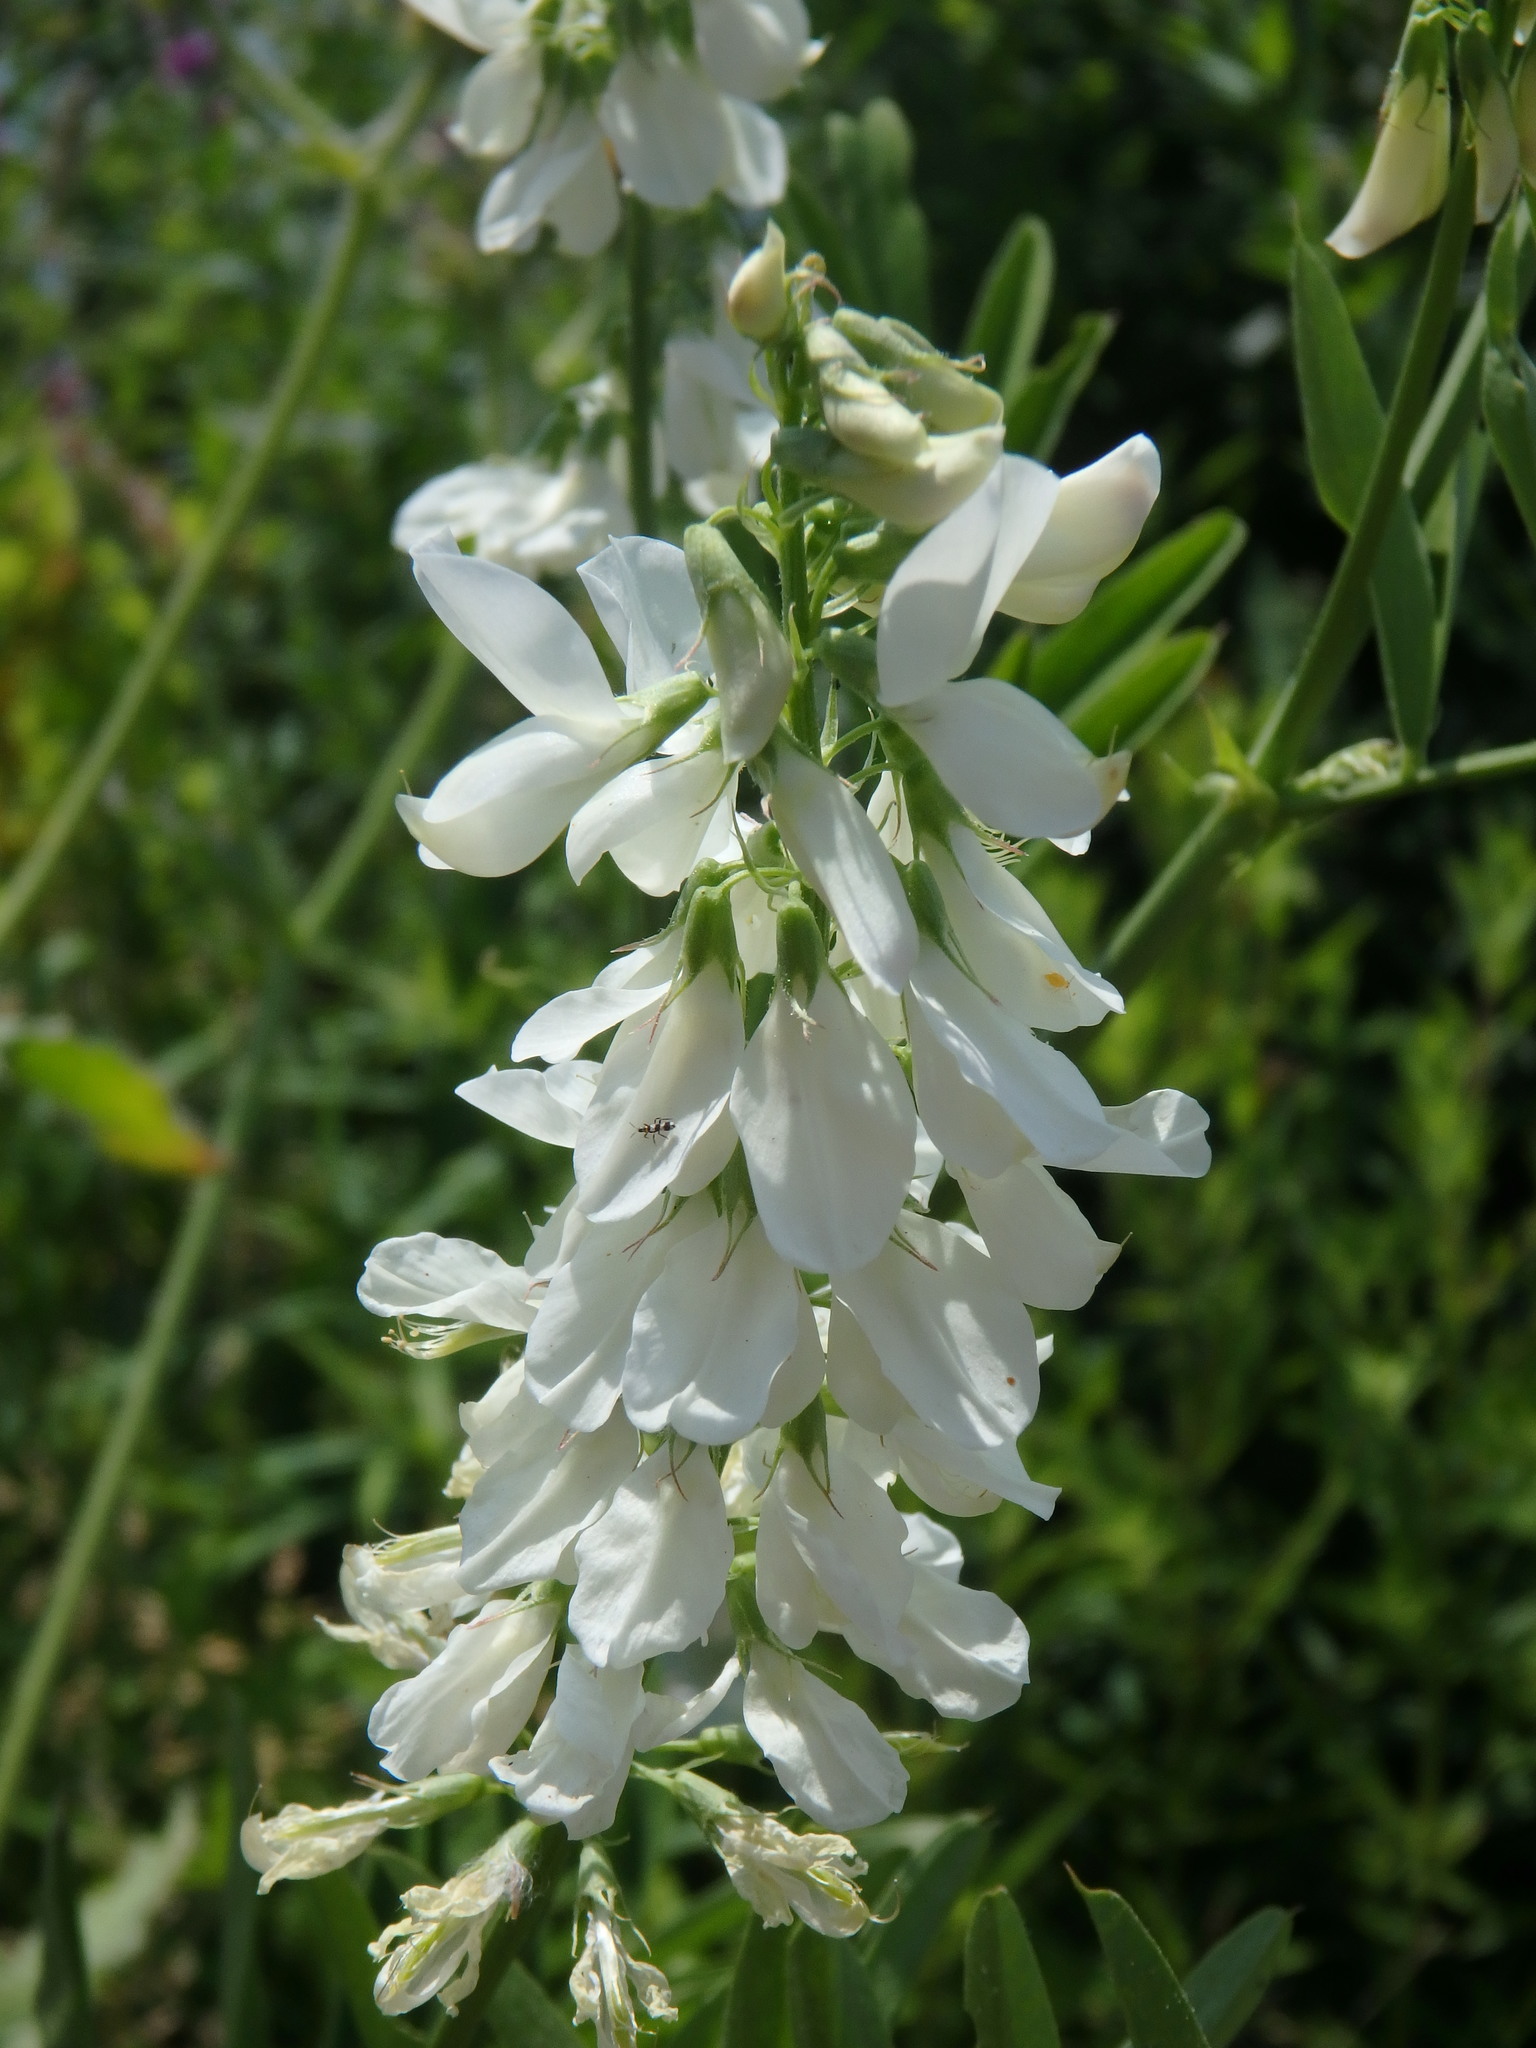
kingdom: Plantae
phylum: Tracheophyta
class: Magnoliopsida
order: Fabales
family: Fabaceae
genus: Galega
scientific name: Galega officinalis
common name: Goat's-rue
